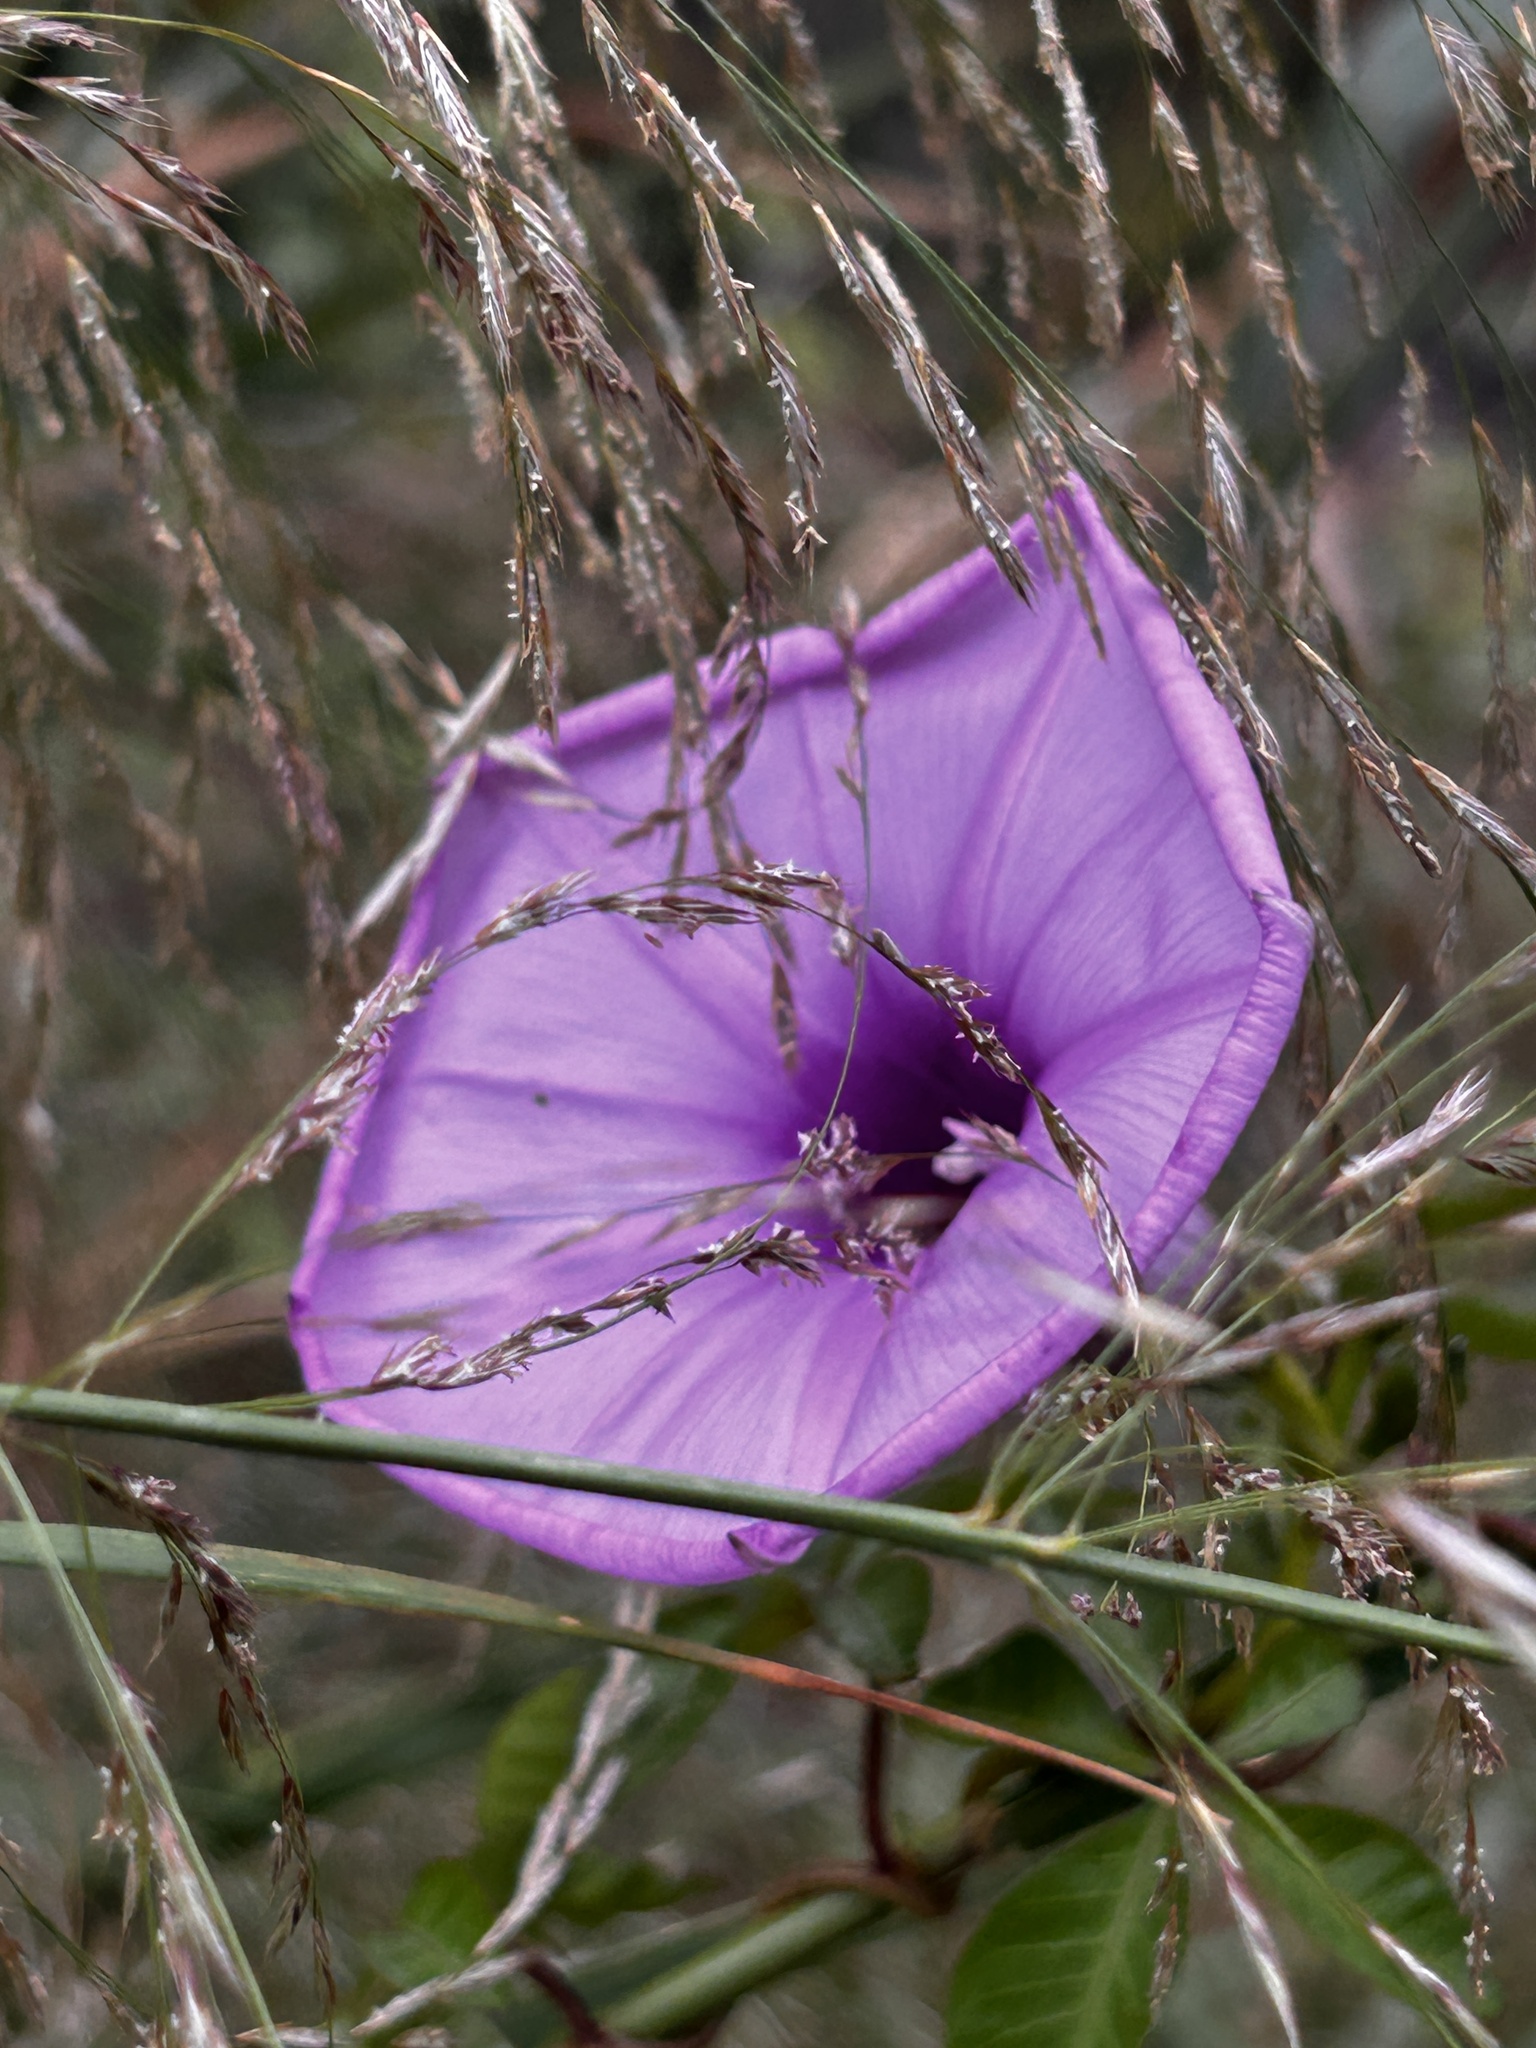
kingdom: Plantae
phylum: Tracheophyta
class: Magnoliopsida
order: Solanales
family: Convolvulaceae
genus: Ipomoea
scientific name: Ipomoea cairica
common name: Mile a minute vine
